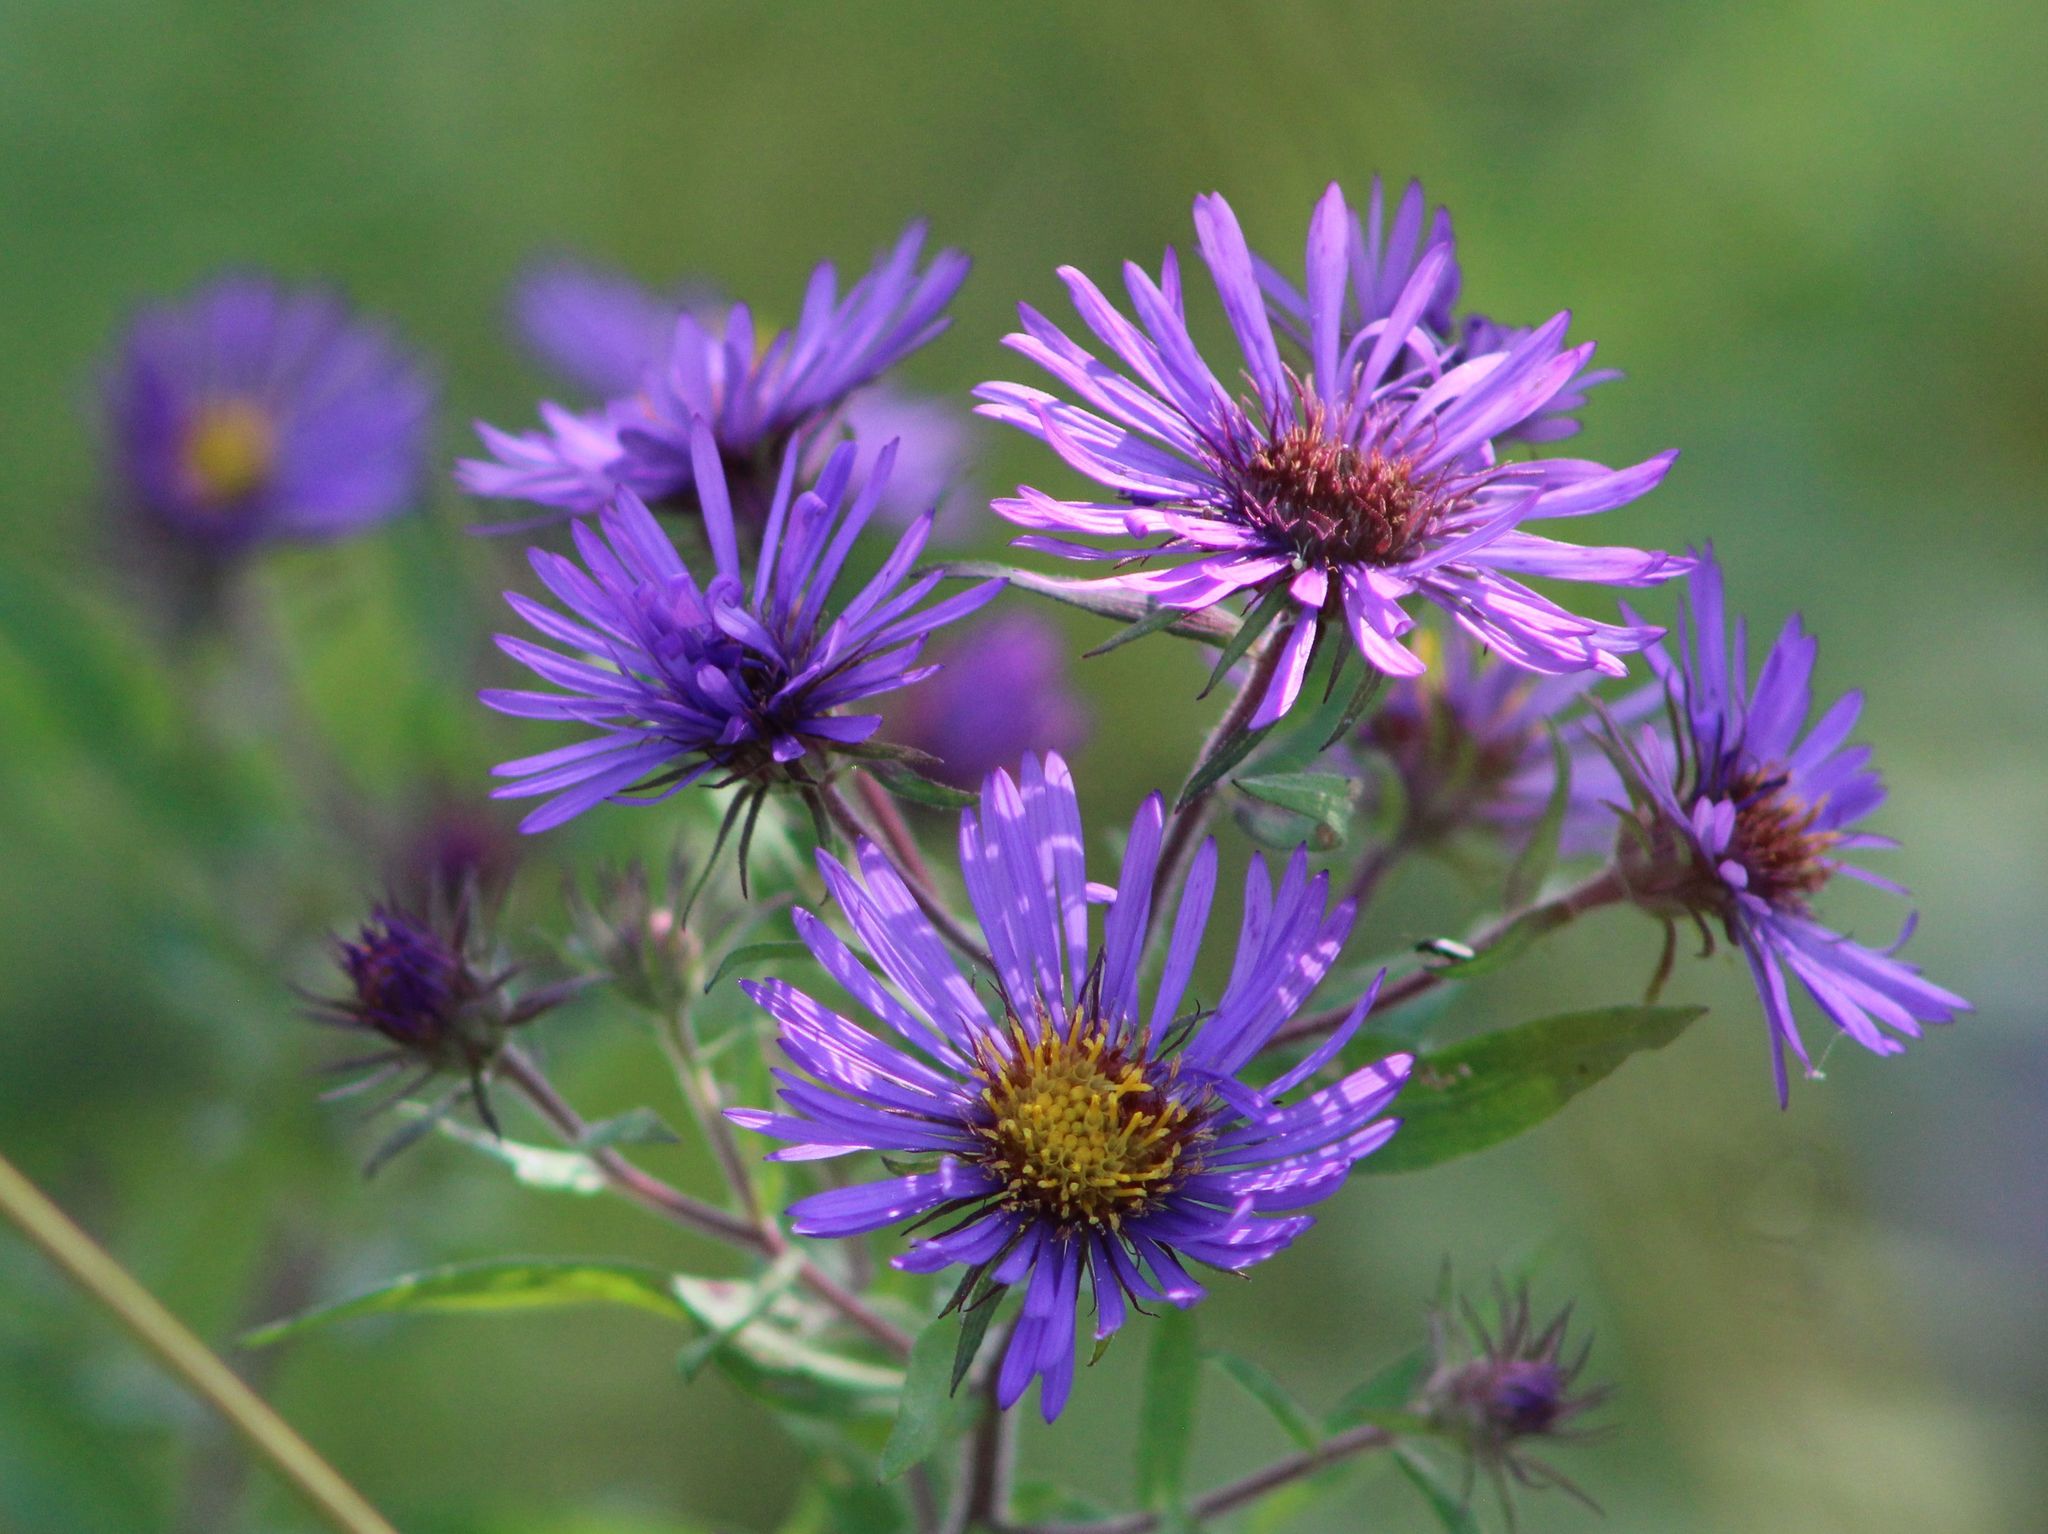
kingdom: Plantae
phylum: Tracheophyta
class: Magnoliopsida
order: Asterales
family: Asteraceae
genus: Symphyotrichum
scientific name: Symphyotrichum novae-angliae
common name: Michaelmas daisy
